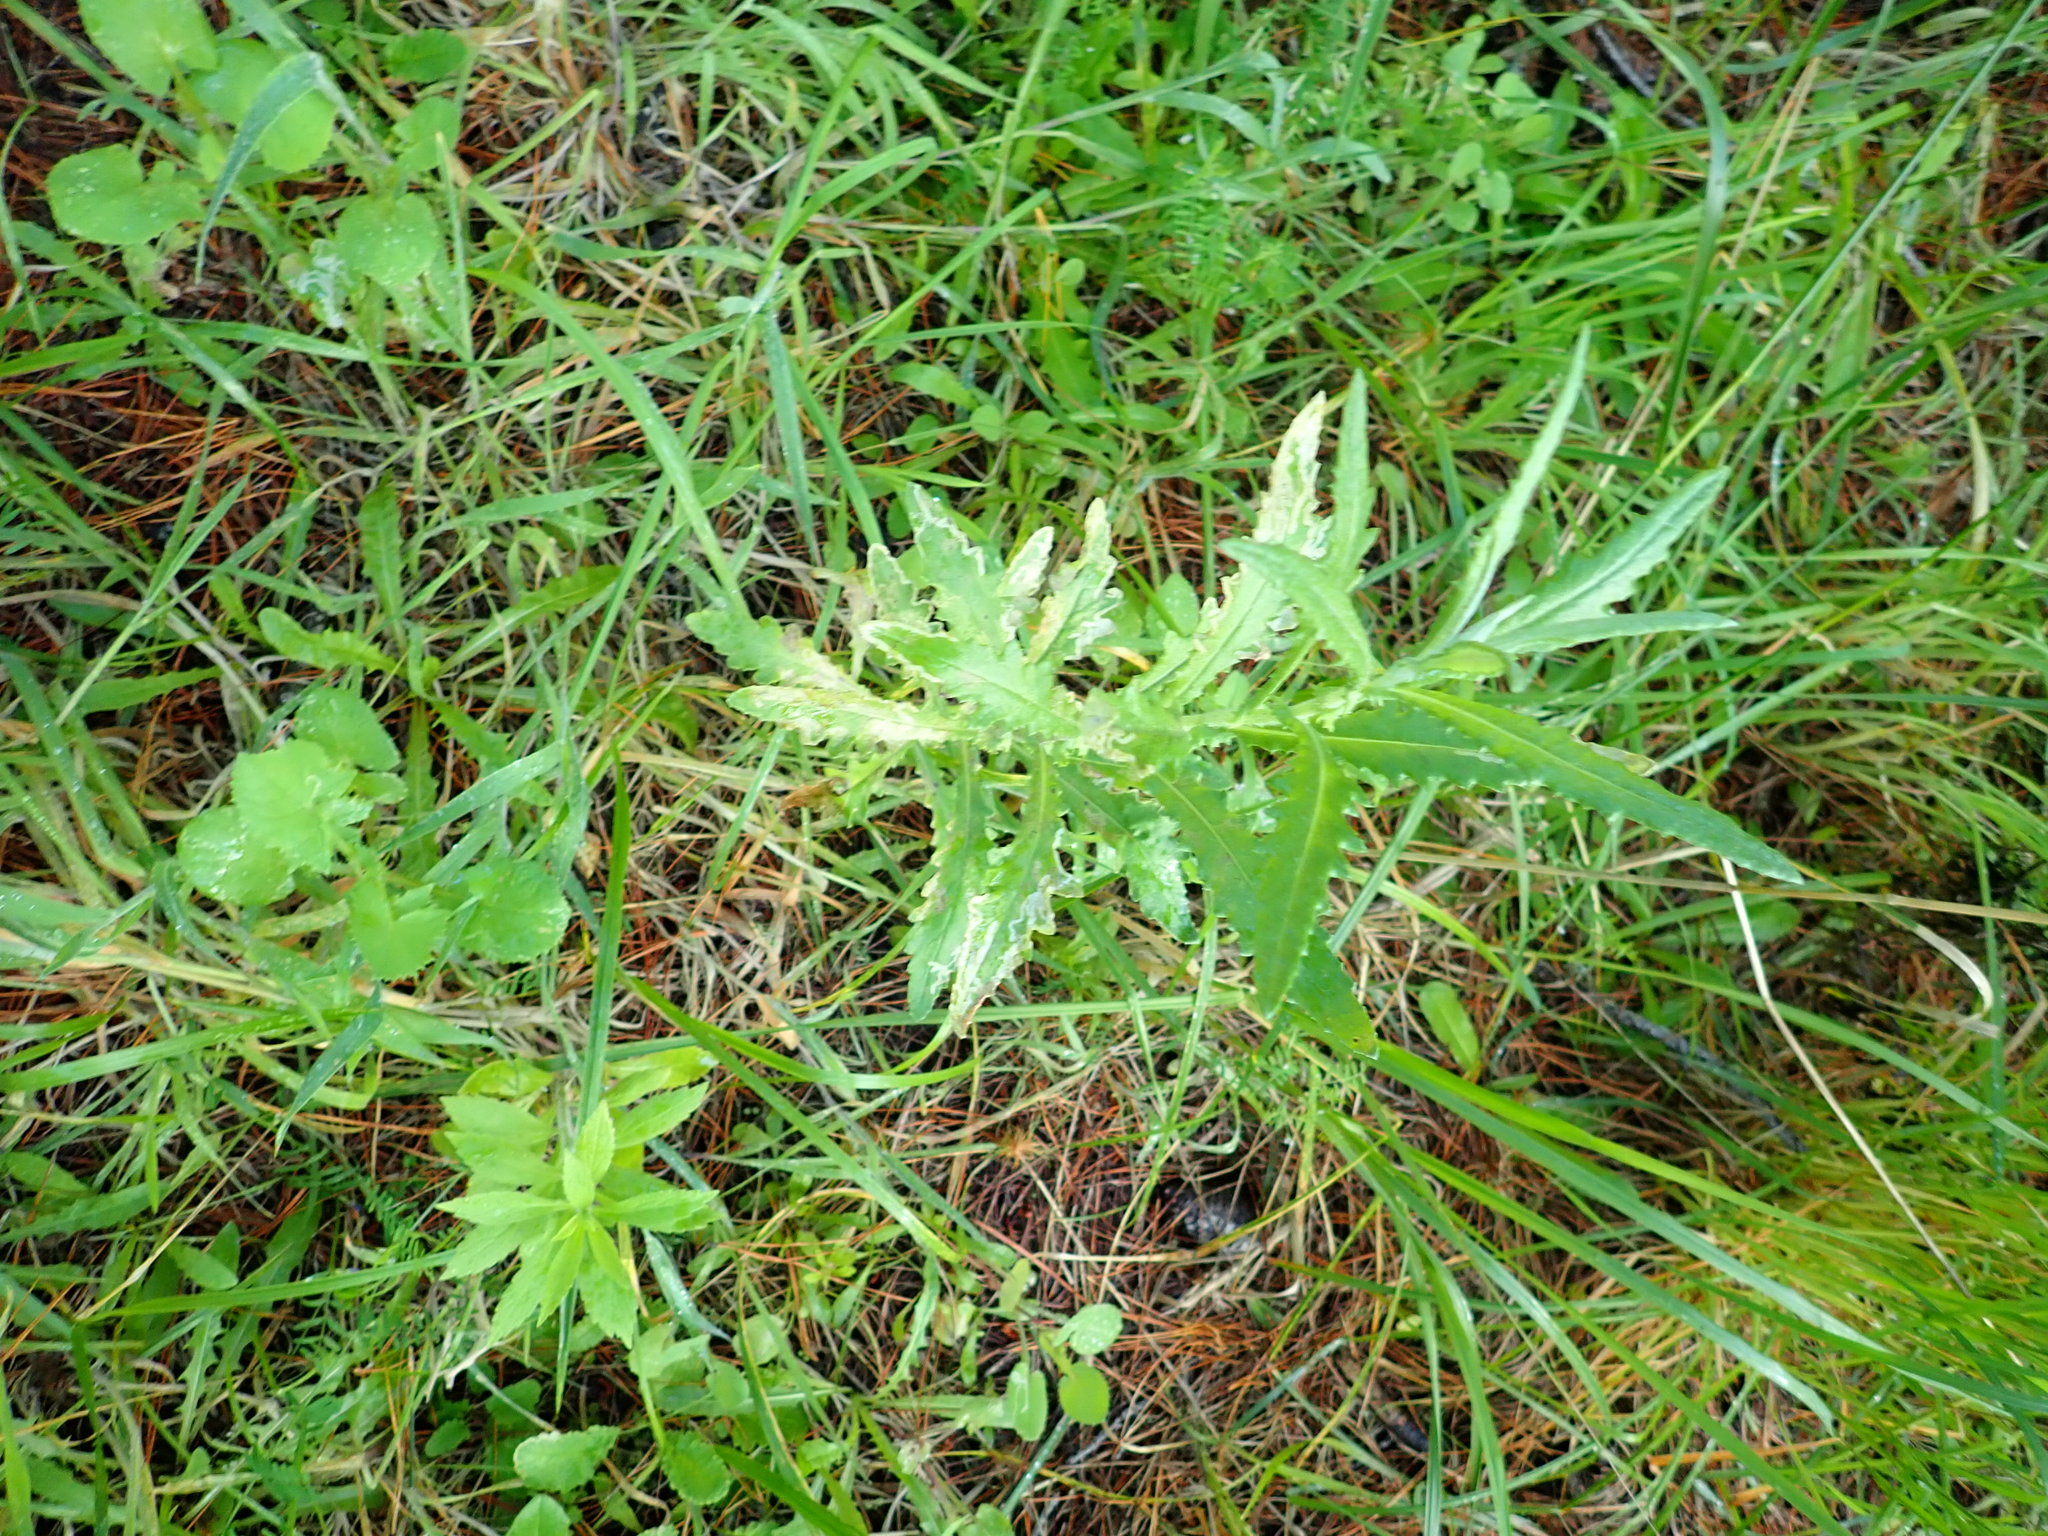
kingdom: Plantae
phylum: Tracheophyta
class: Magnoliopsida
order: Asterales
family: Asteraceae
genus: Senecio
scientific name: Senecio glomeratus
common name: Cutleaf burnweed
